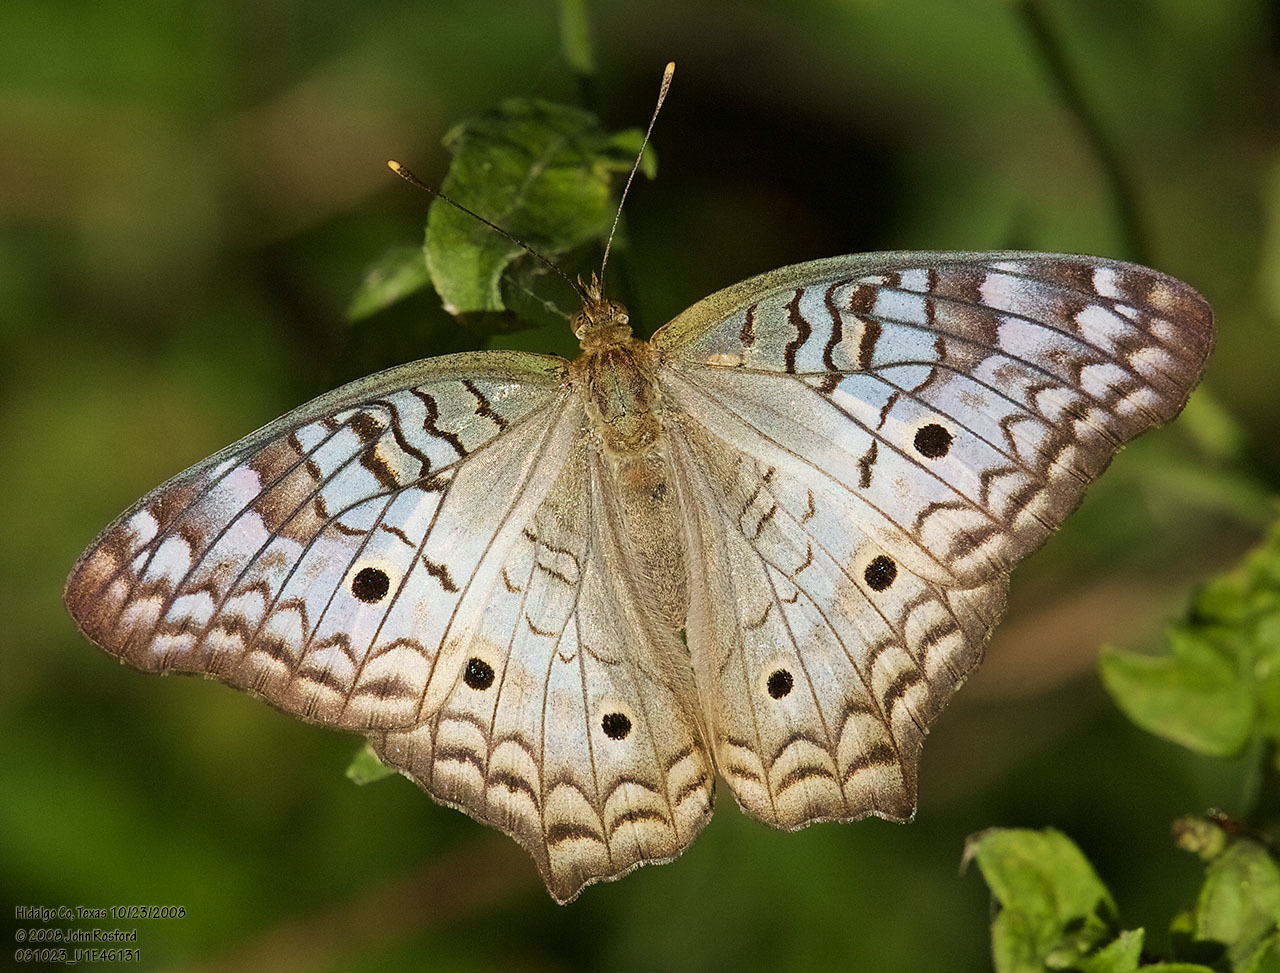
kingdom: Animalia
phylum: Arthropoda
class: Insecta
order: Lepidoptera
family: Nymphalidae
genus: Anartia
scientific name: Anartia jatrophae
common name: White peacock
